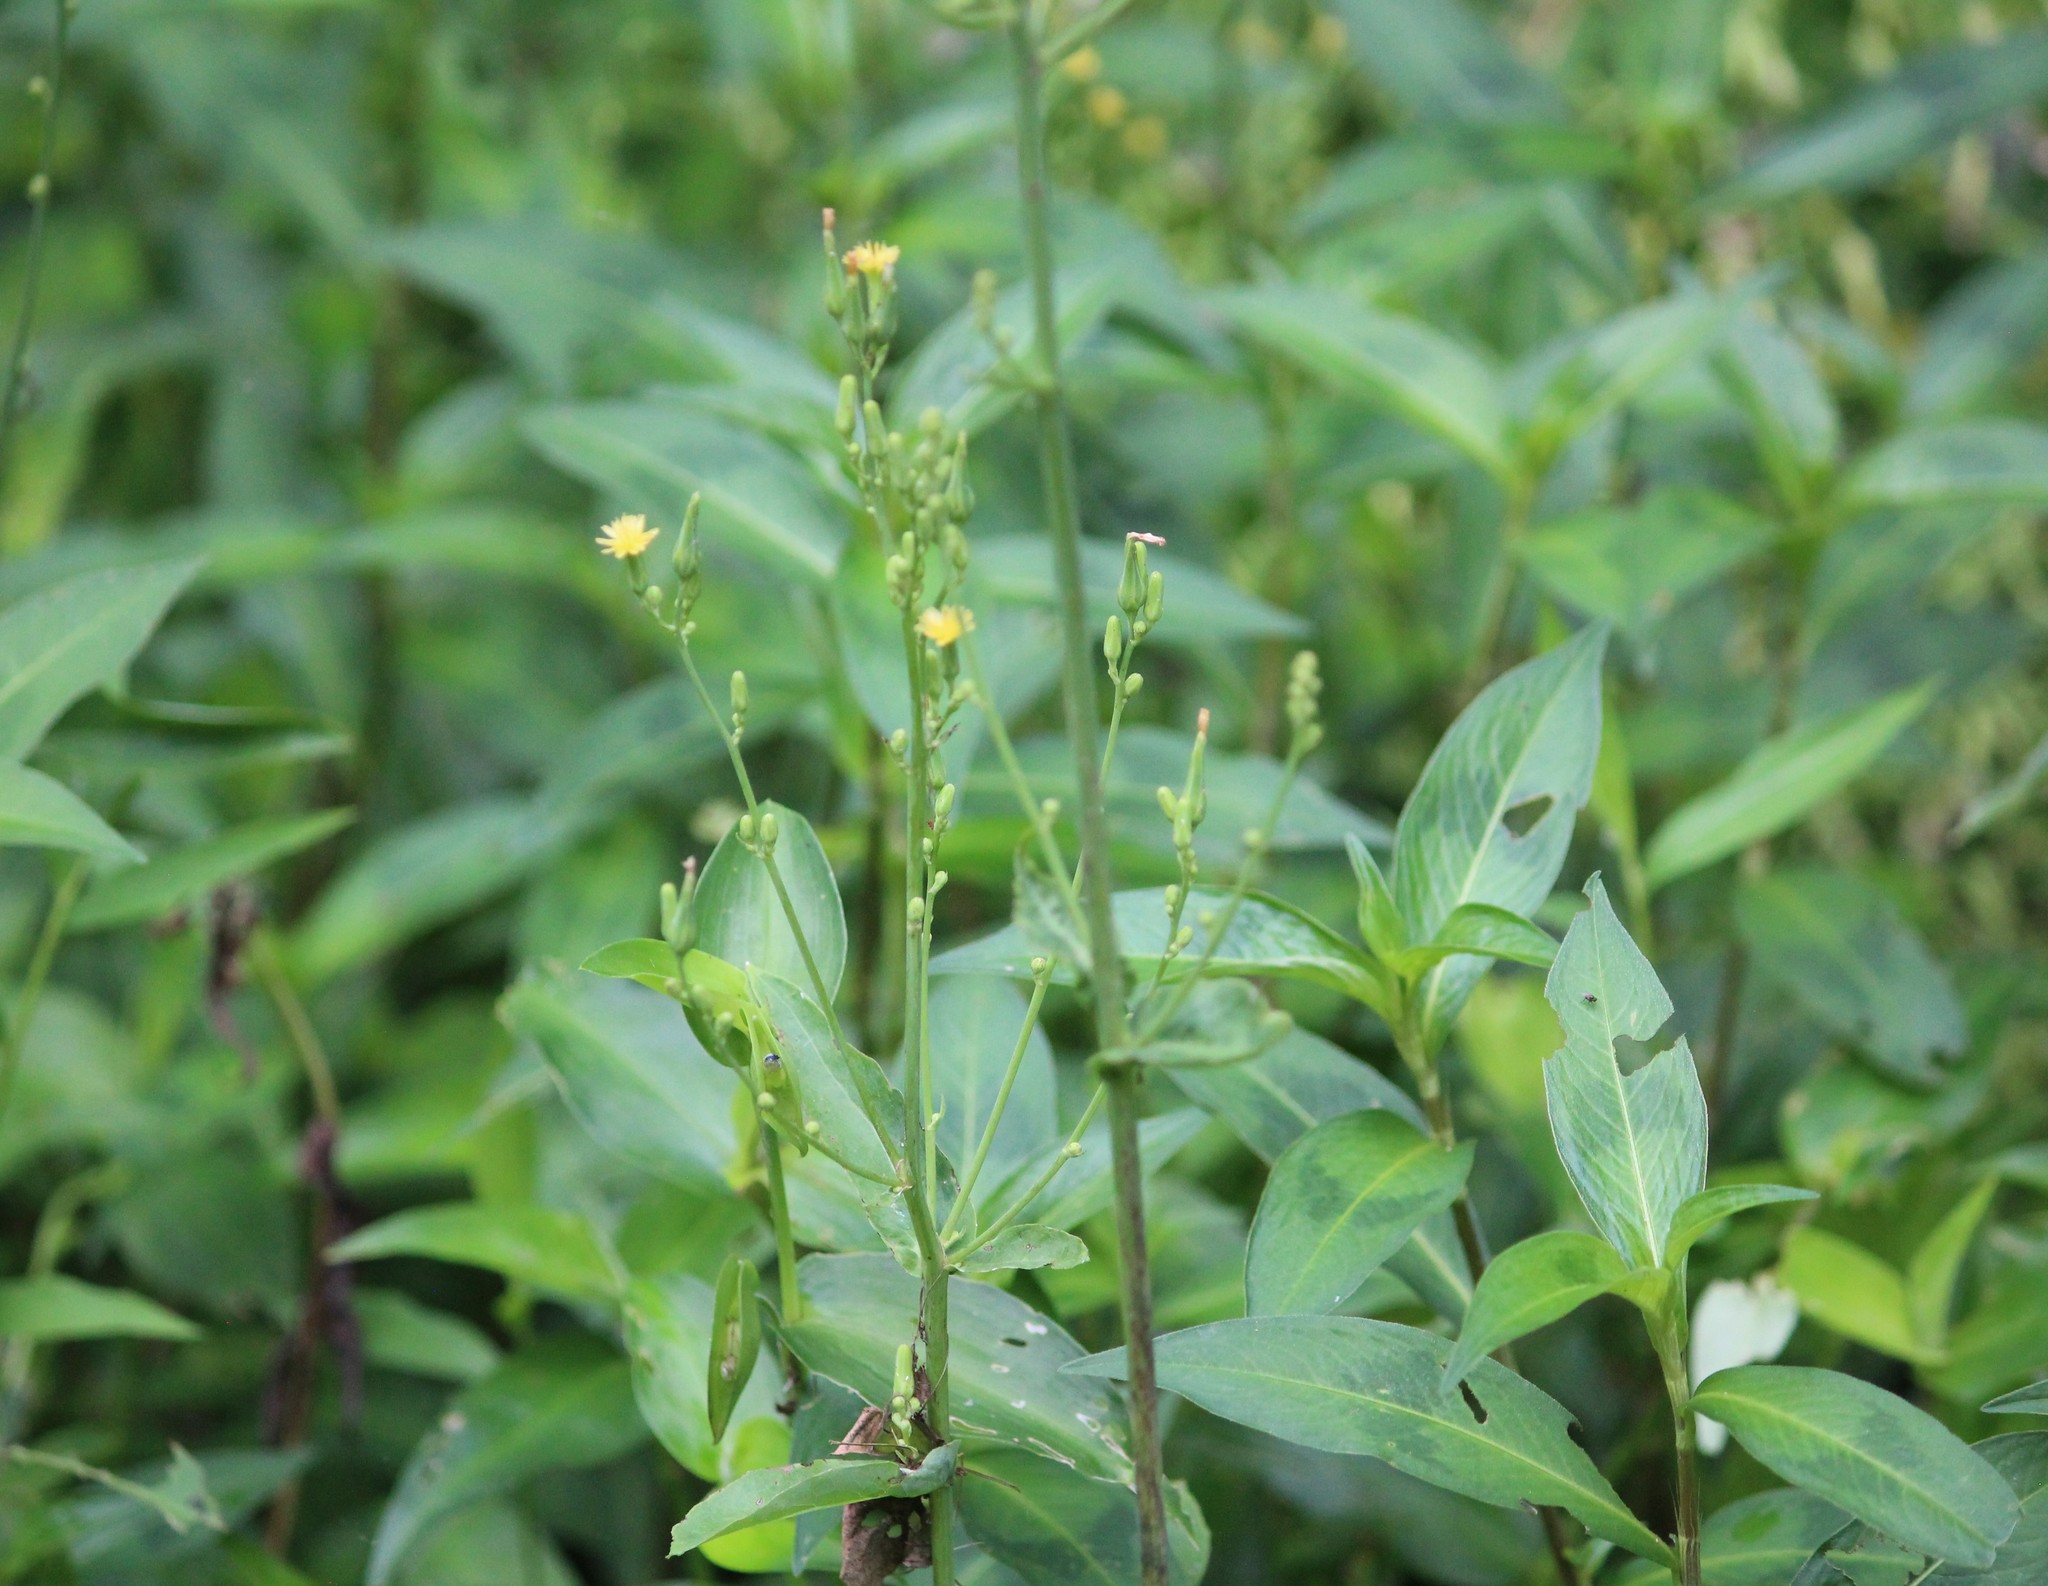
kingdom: Plantae
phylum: Tracheophyta
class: Magnoliopsida
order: Asterales
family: Asteraceae
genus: Lactuca
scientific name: Lactuca canadensis
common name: Canada lettuce
